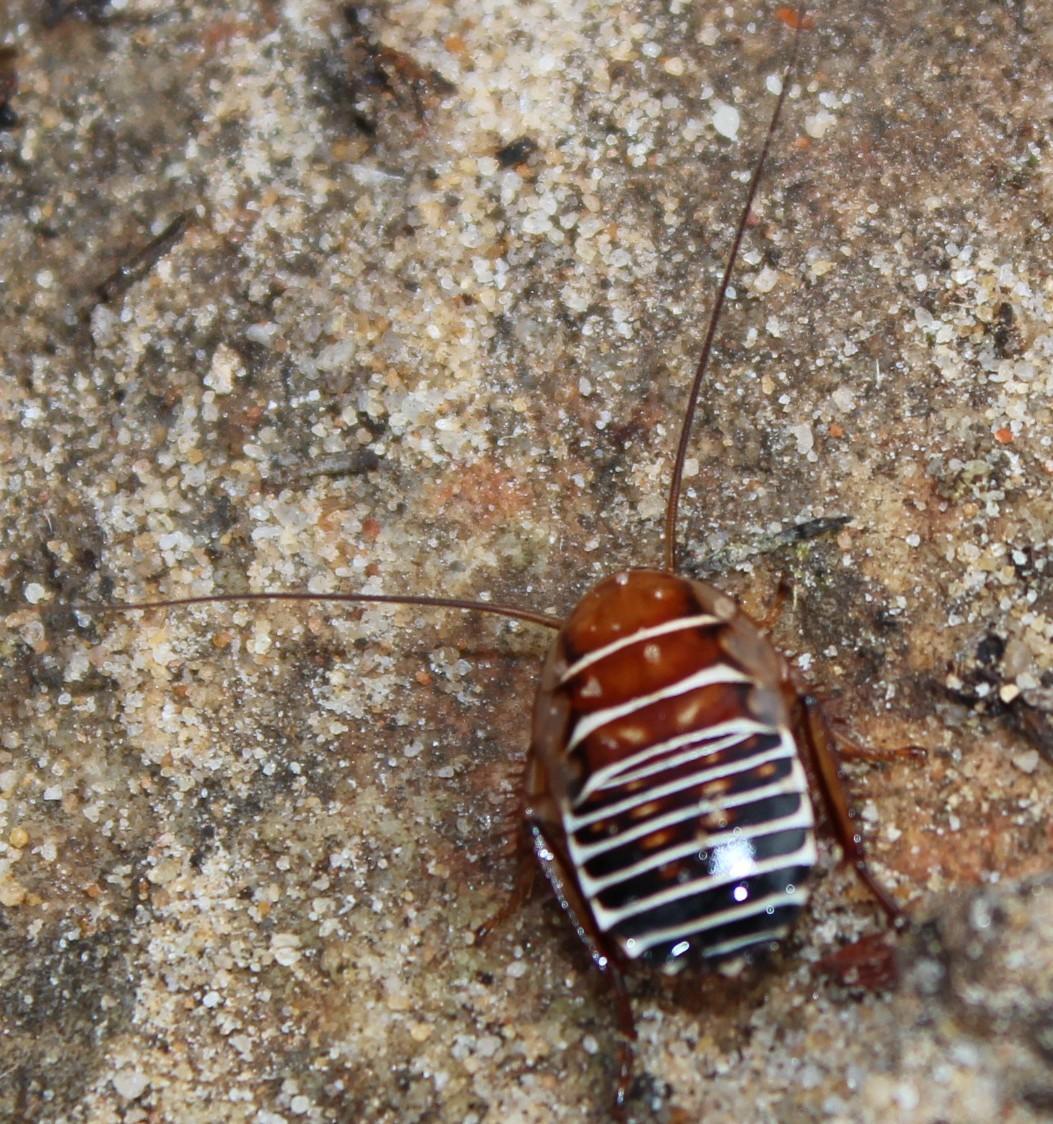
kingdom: Animalia
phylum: Arthropoda
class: Insecta
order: Blattodea
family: Ectobiidae
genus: Temnopteryx
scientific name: Temnopteryx phalerata
